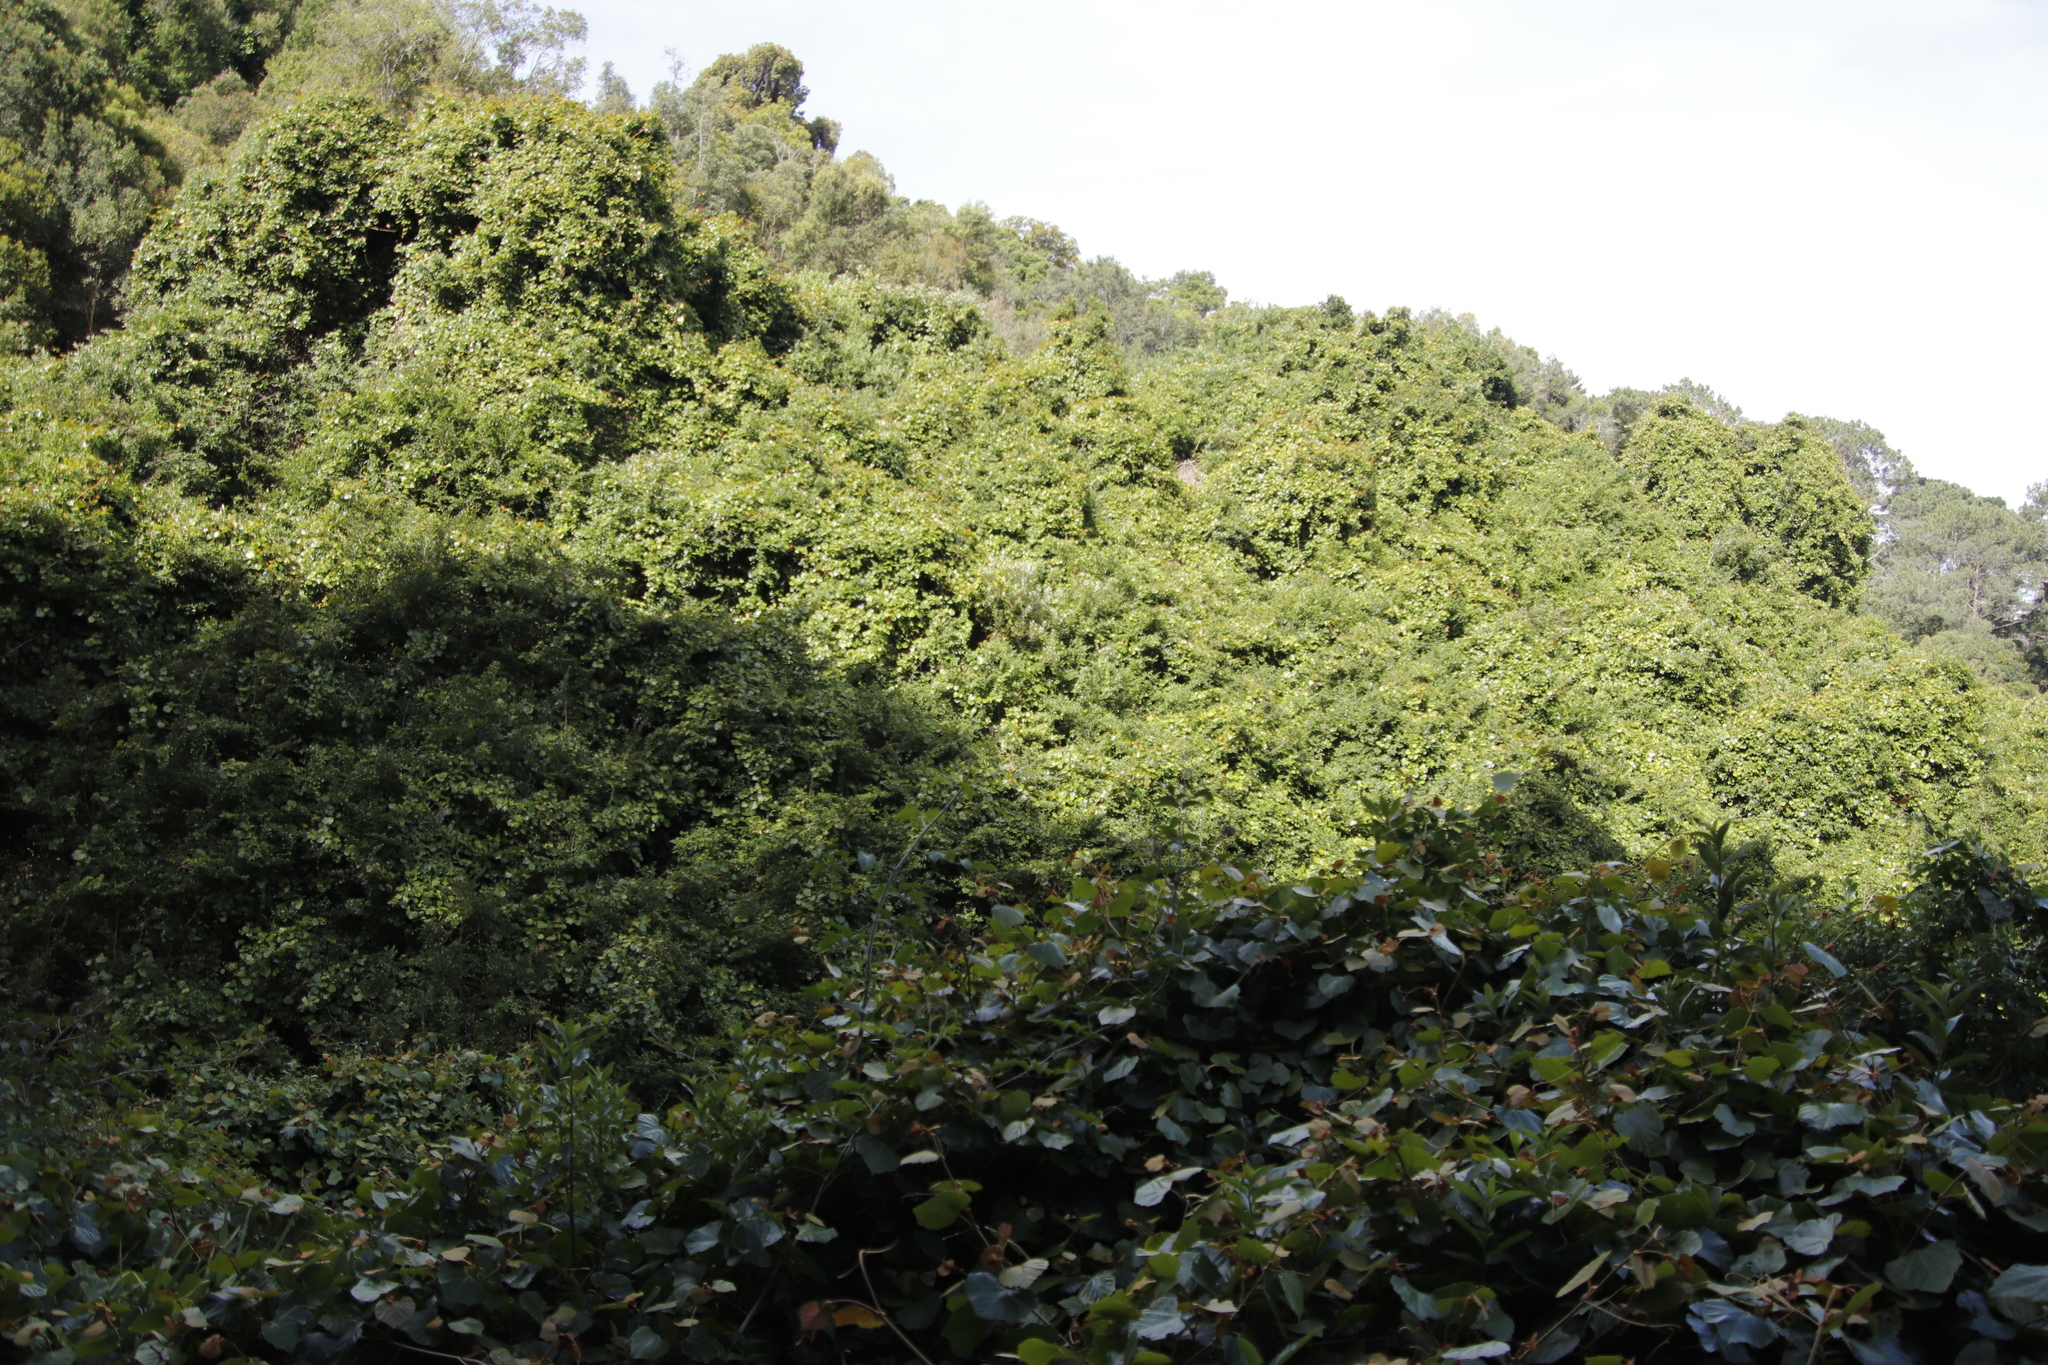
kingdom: Plantae
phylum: Tracheophyta
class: Magnoliopsida
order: Vitales
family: Vitaceae
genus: Rhoicissus
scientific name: Rhoicissus tomentosa
